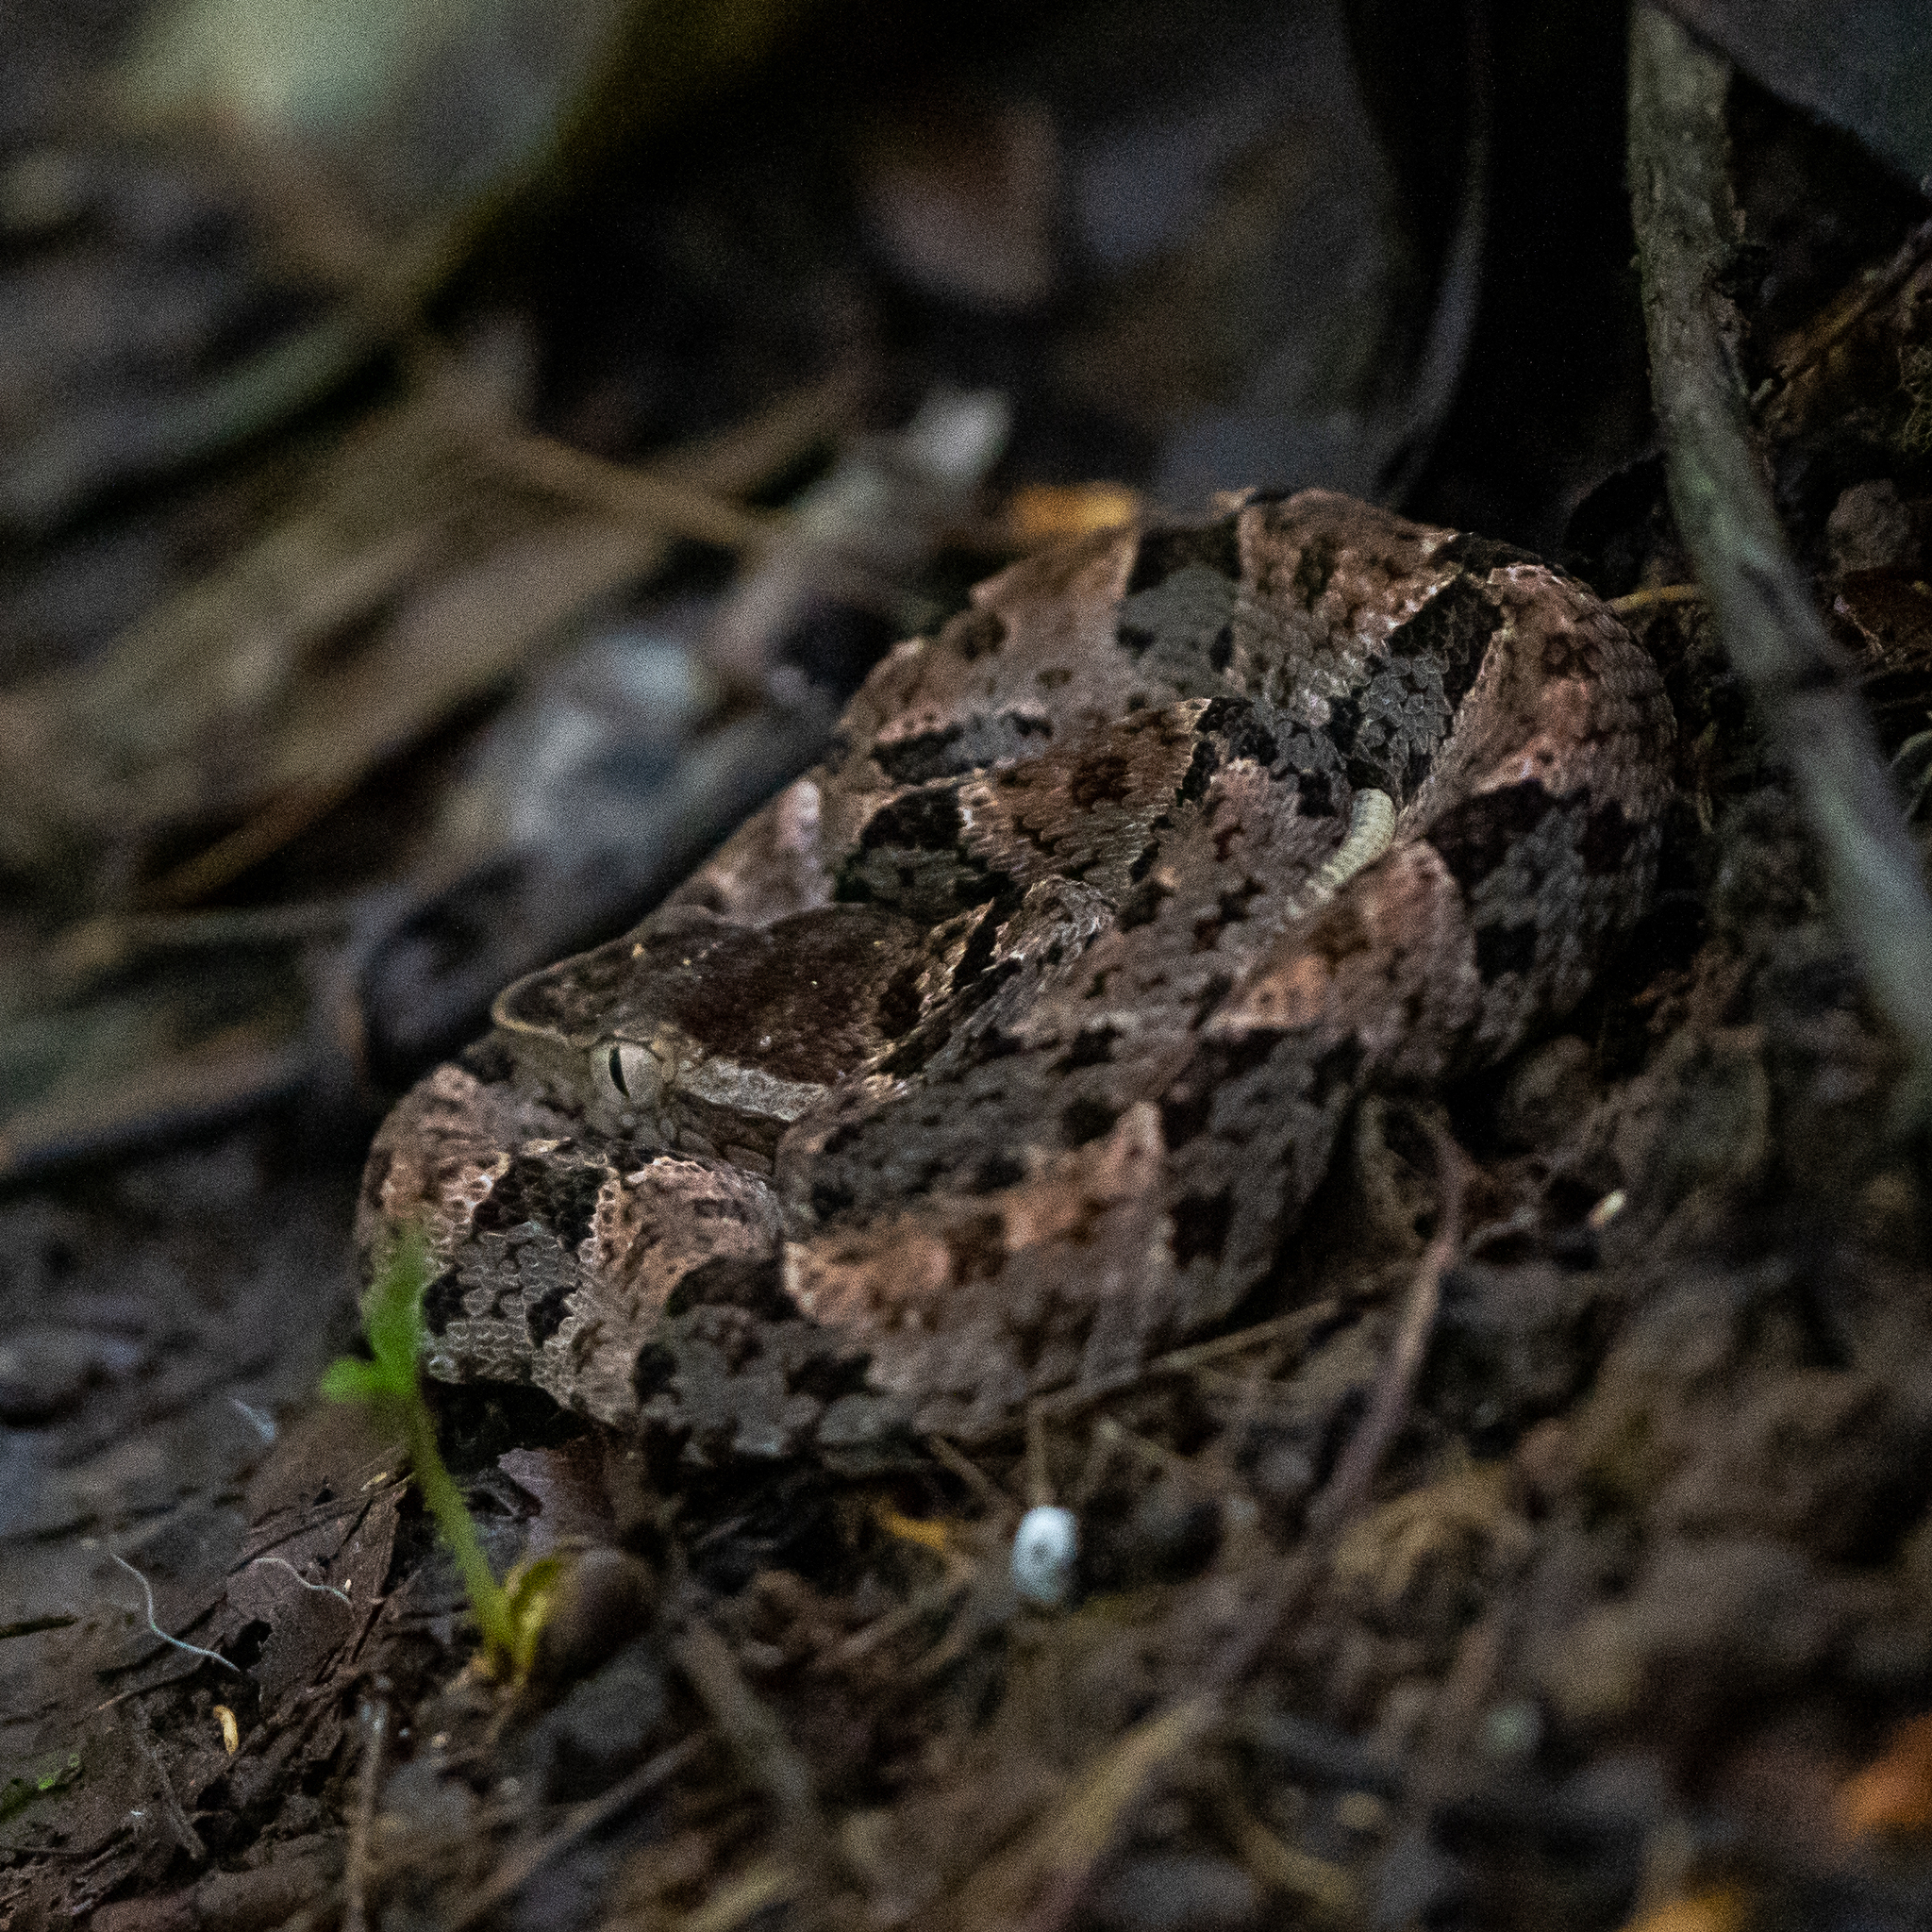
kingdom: Animalia
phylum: Chordata
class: Squamata
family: Viperidae
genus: Bothrops
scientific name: Bothrops asper
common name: Terciopelo
